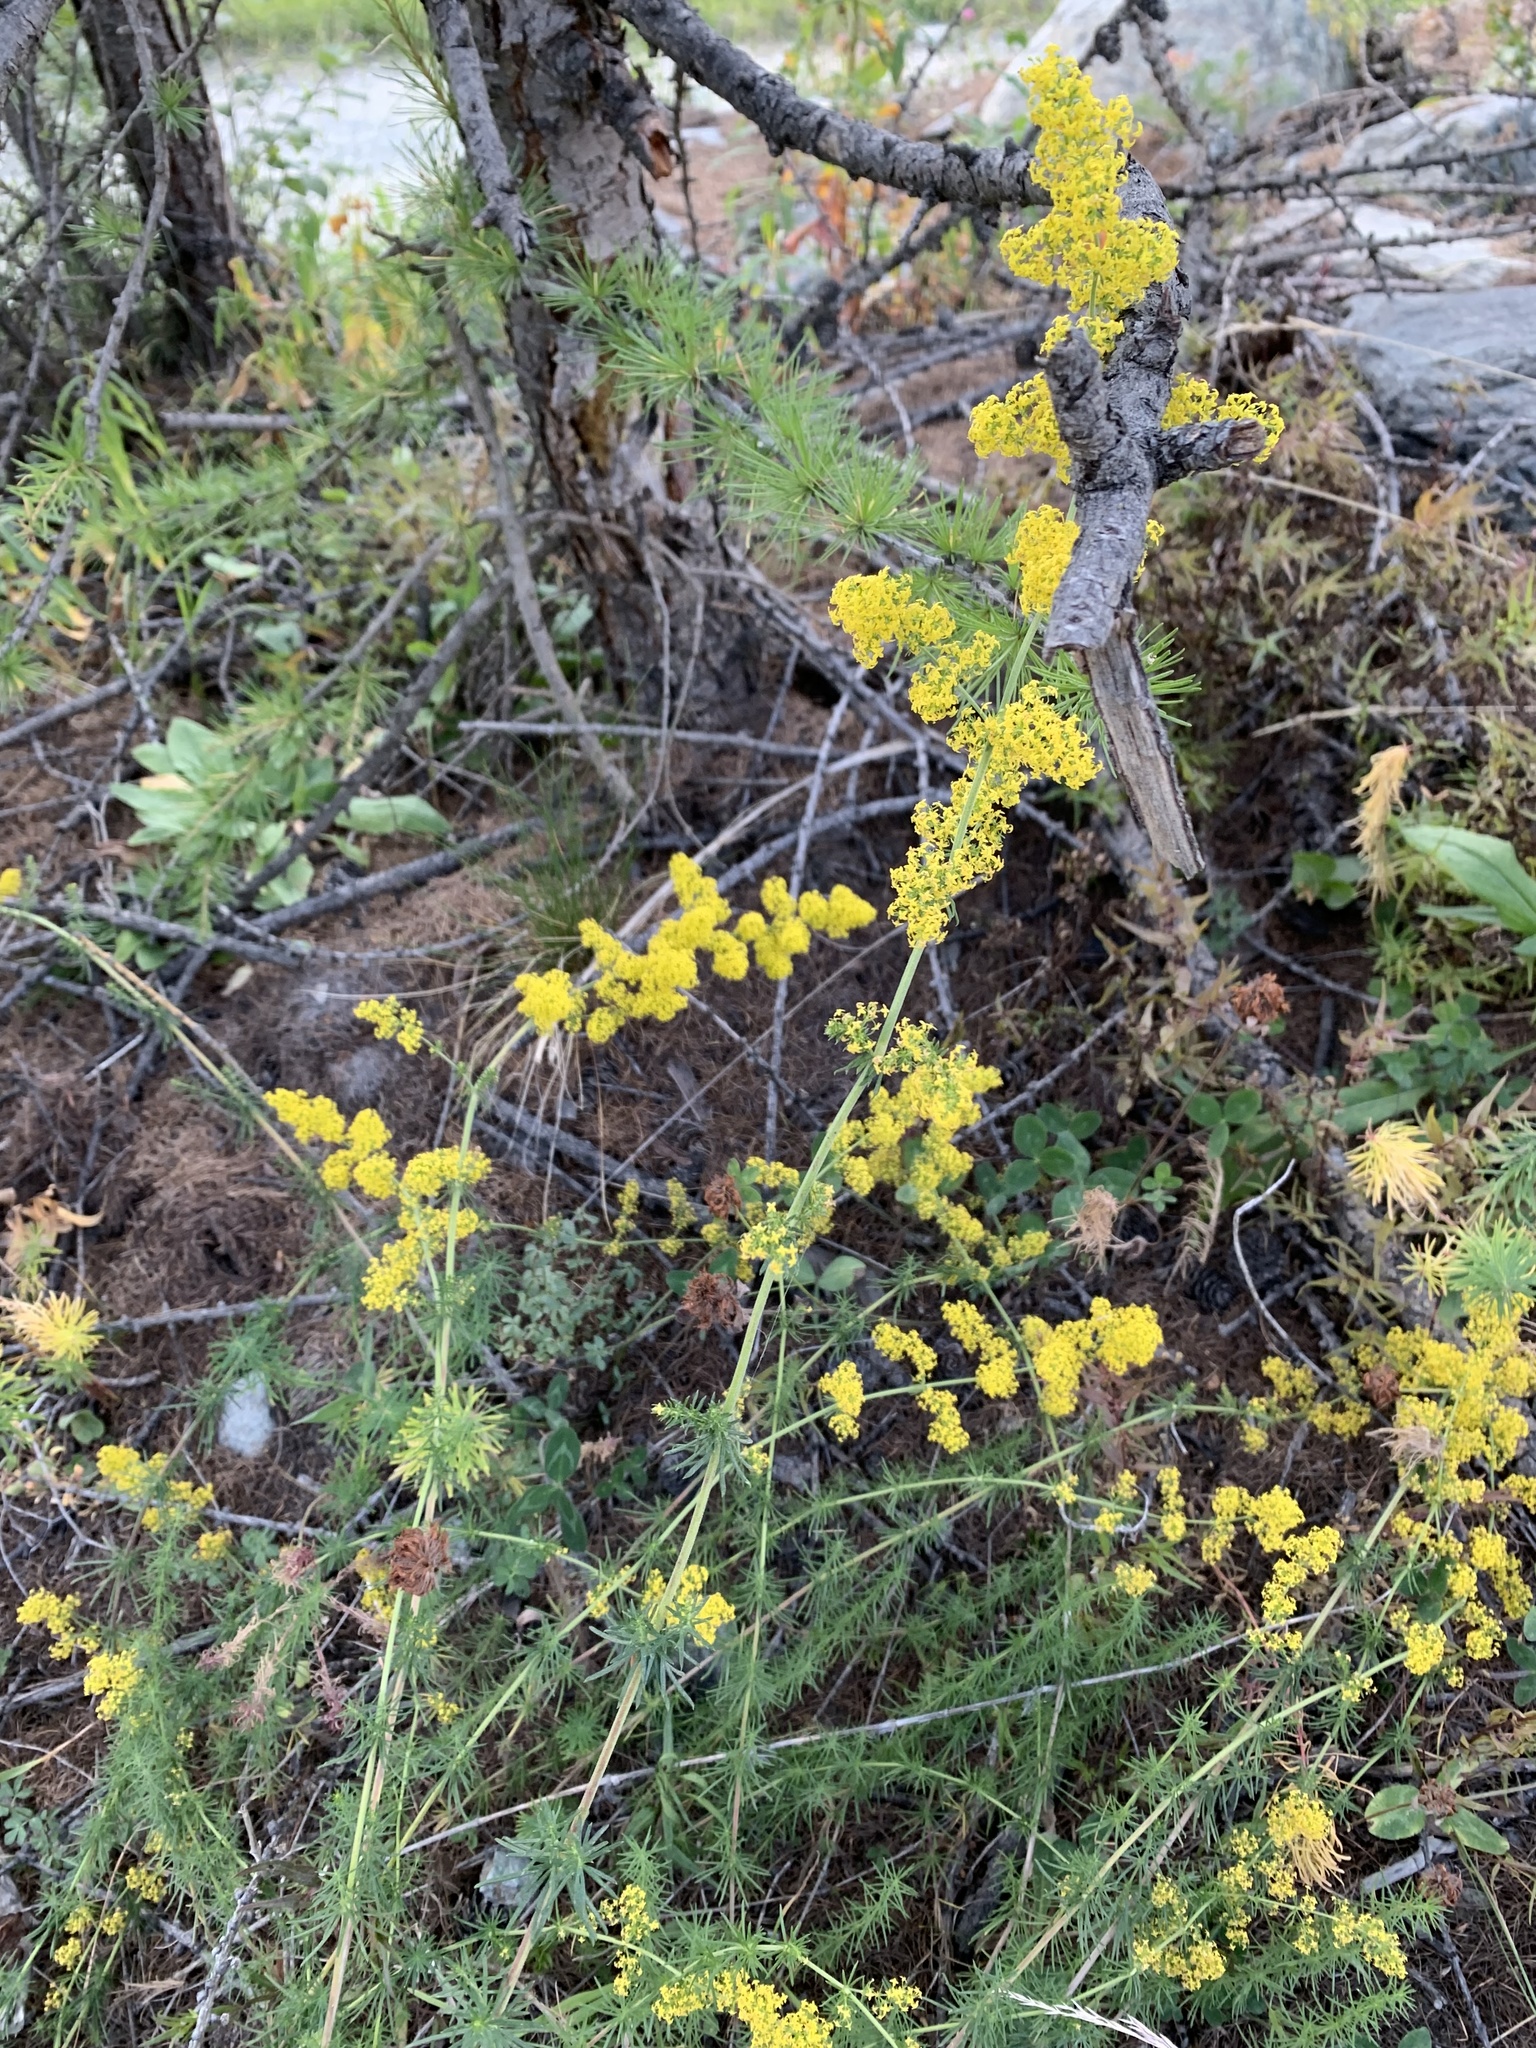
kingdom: Plantae
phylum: Tracheophyta
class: Magnoliopsida
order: Gentianales
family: Rubiaceae
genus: Galium
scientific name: Galium verum
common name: Lady's bedstraw
